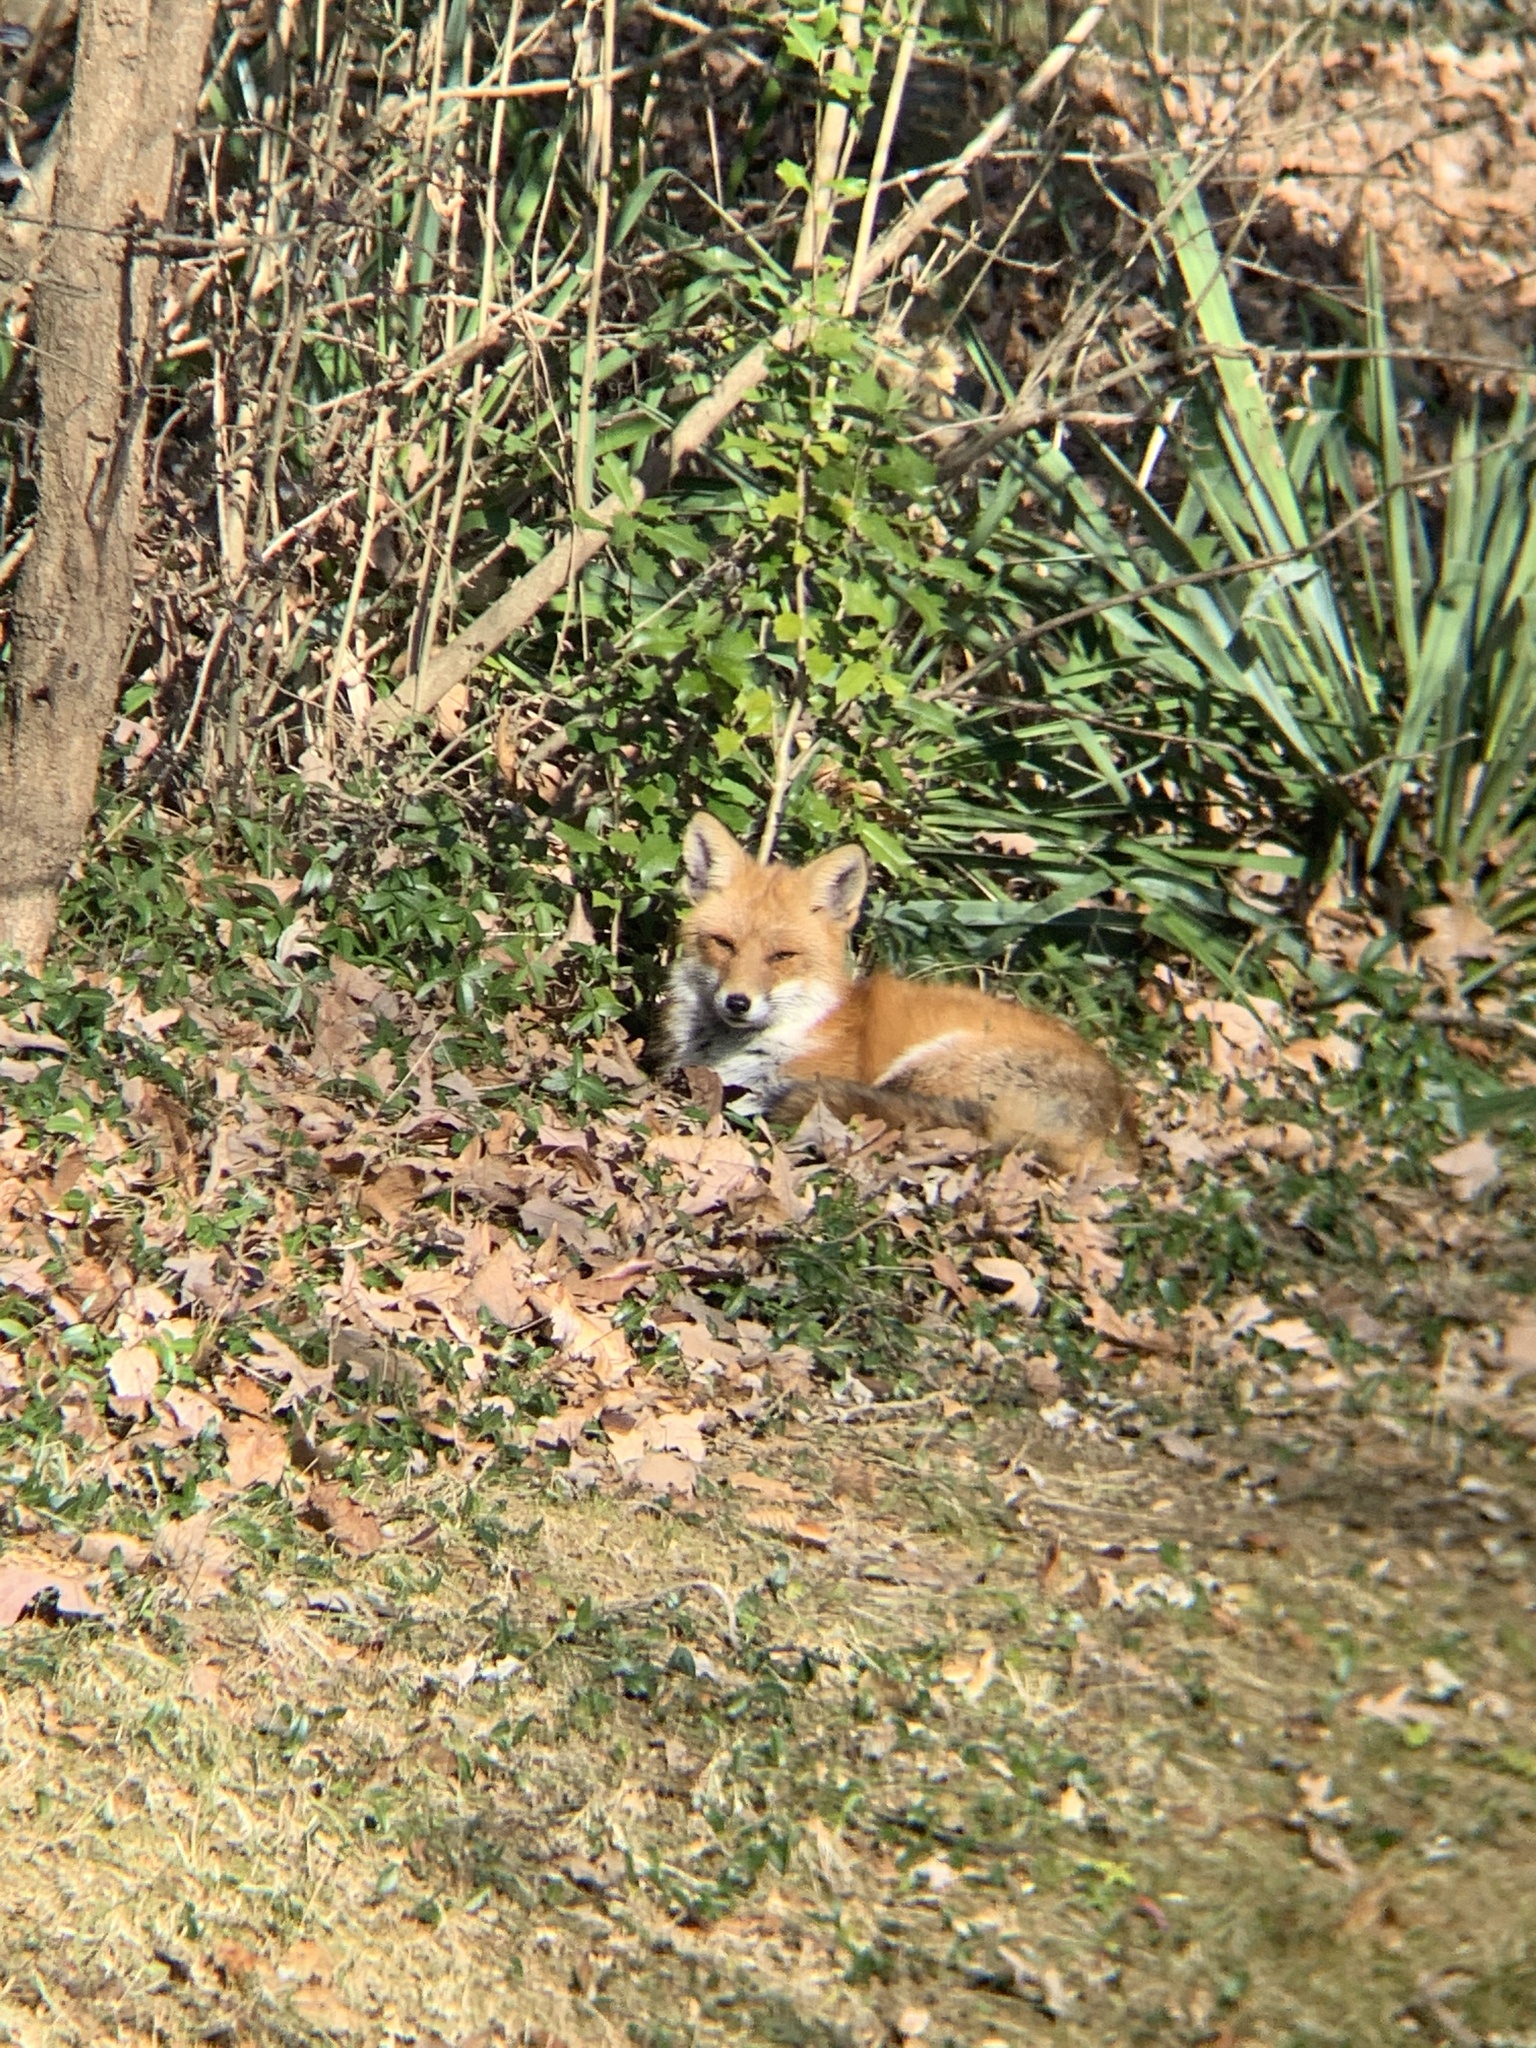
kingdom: Animalia
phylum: Chordata
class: Mammalia
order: Carnivora
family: Canidae
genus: Vulpes
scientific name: Vulpes vulpes
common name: Red fox
